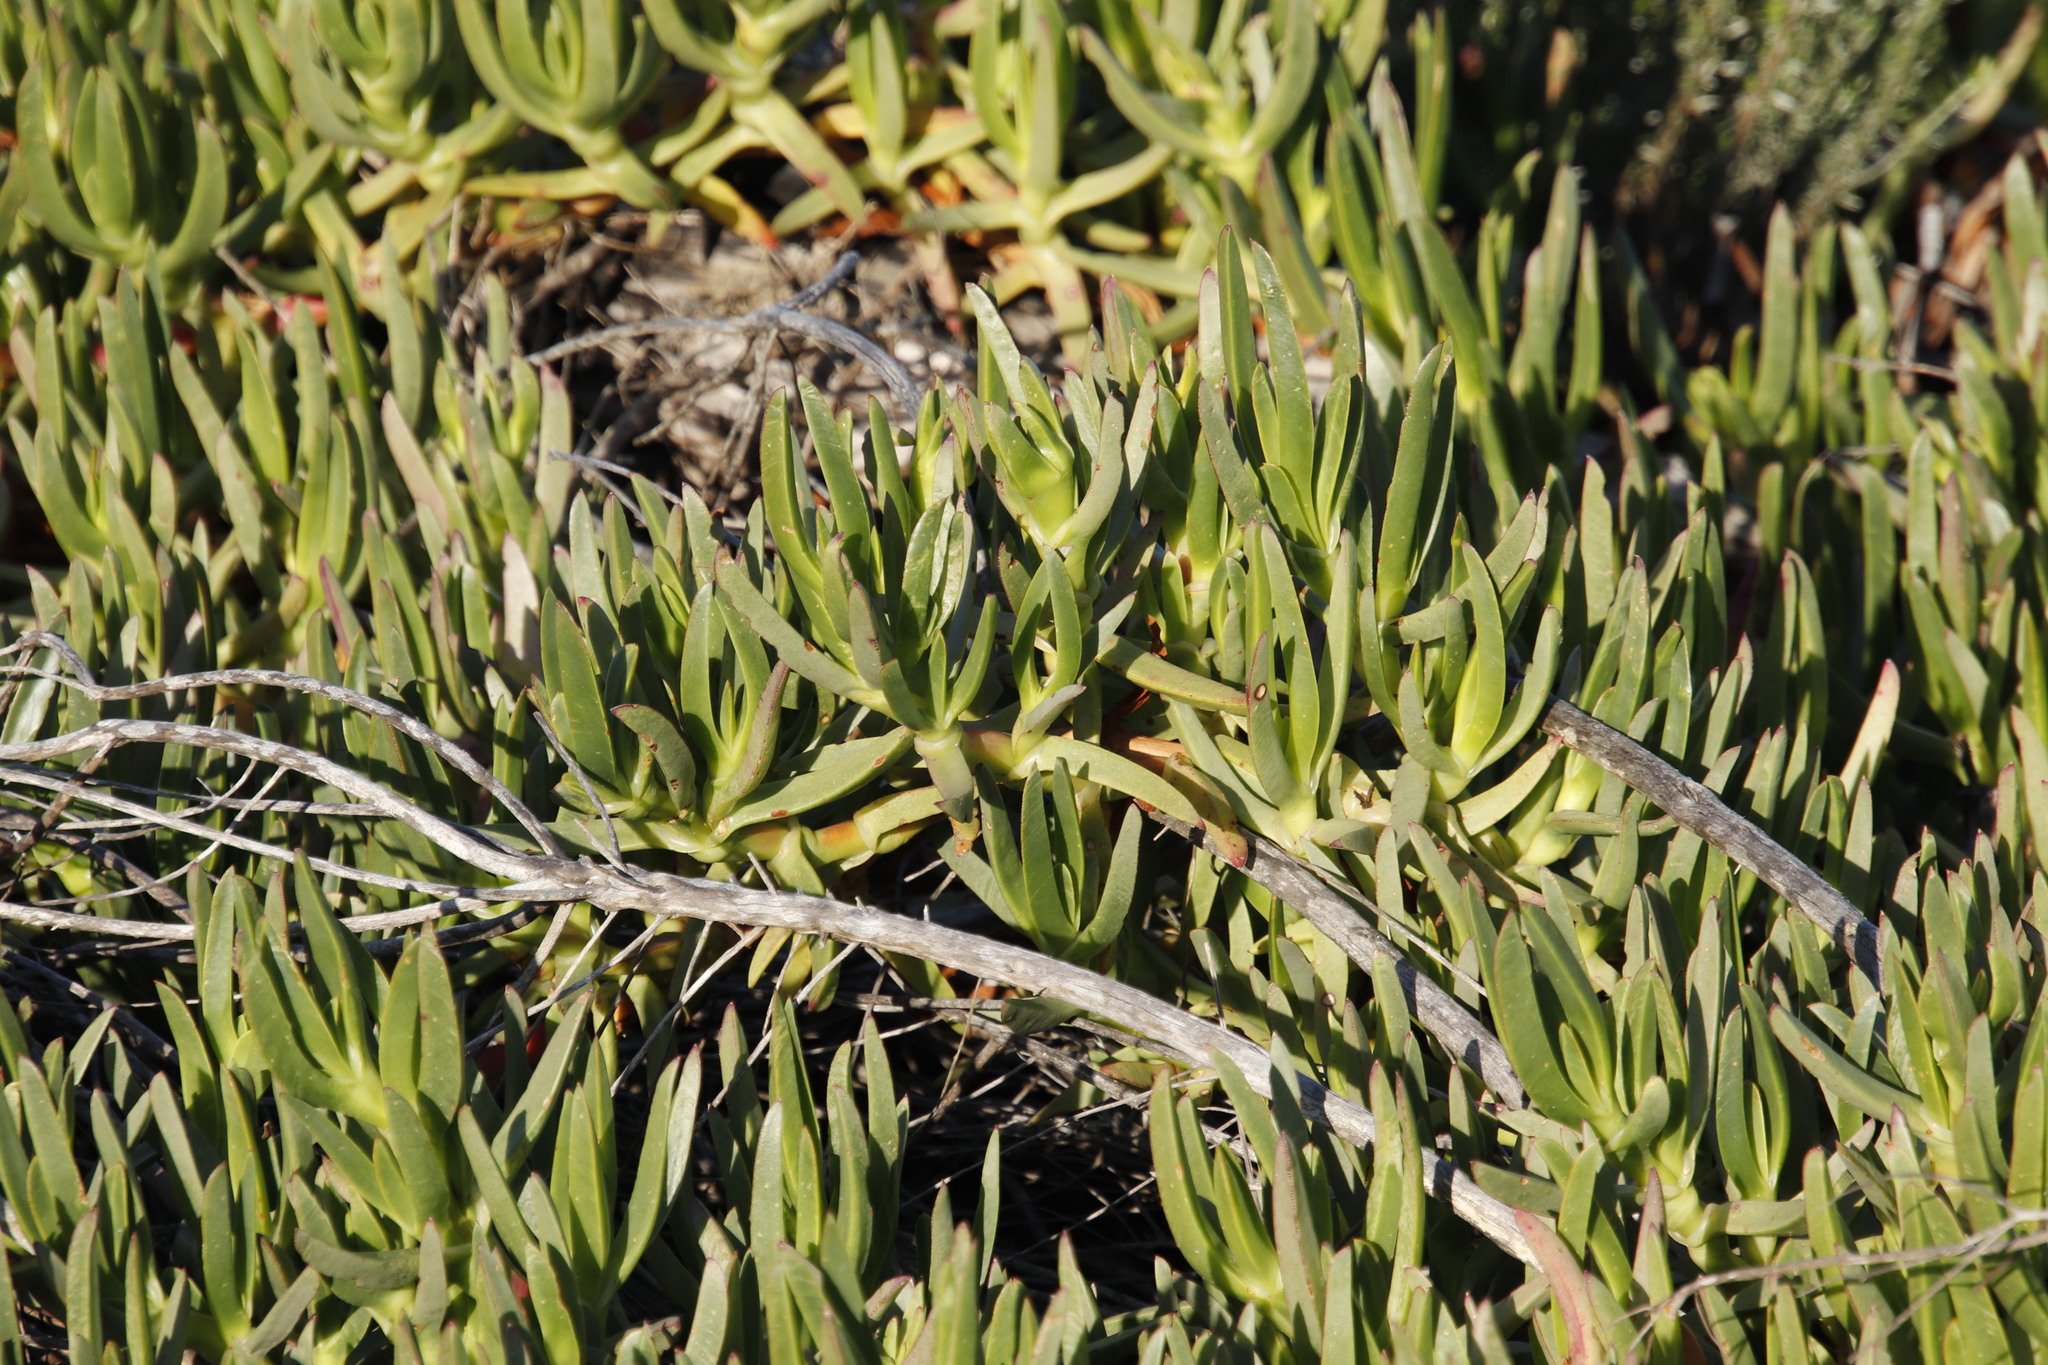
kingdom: Plantae
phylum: Tracheophyta
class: Magnoliopsida
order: Caryophyllales
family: Aizoaceae
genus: Carpobrotus
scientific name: Carpobrotus edulis
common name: Hottentot-fig
